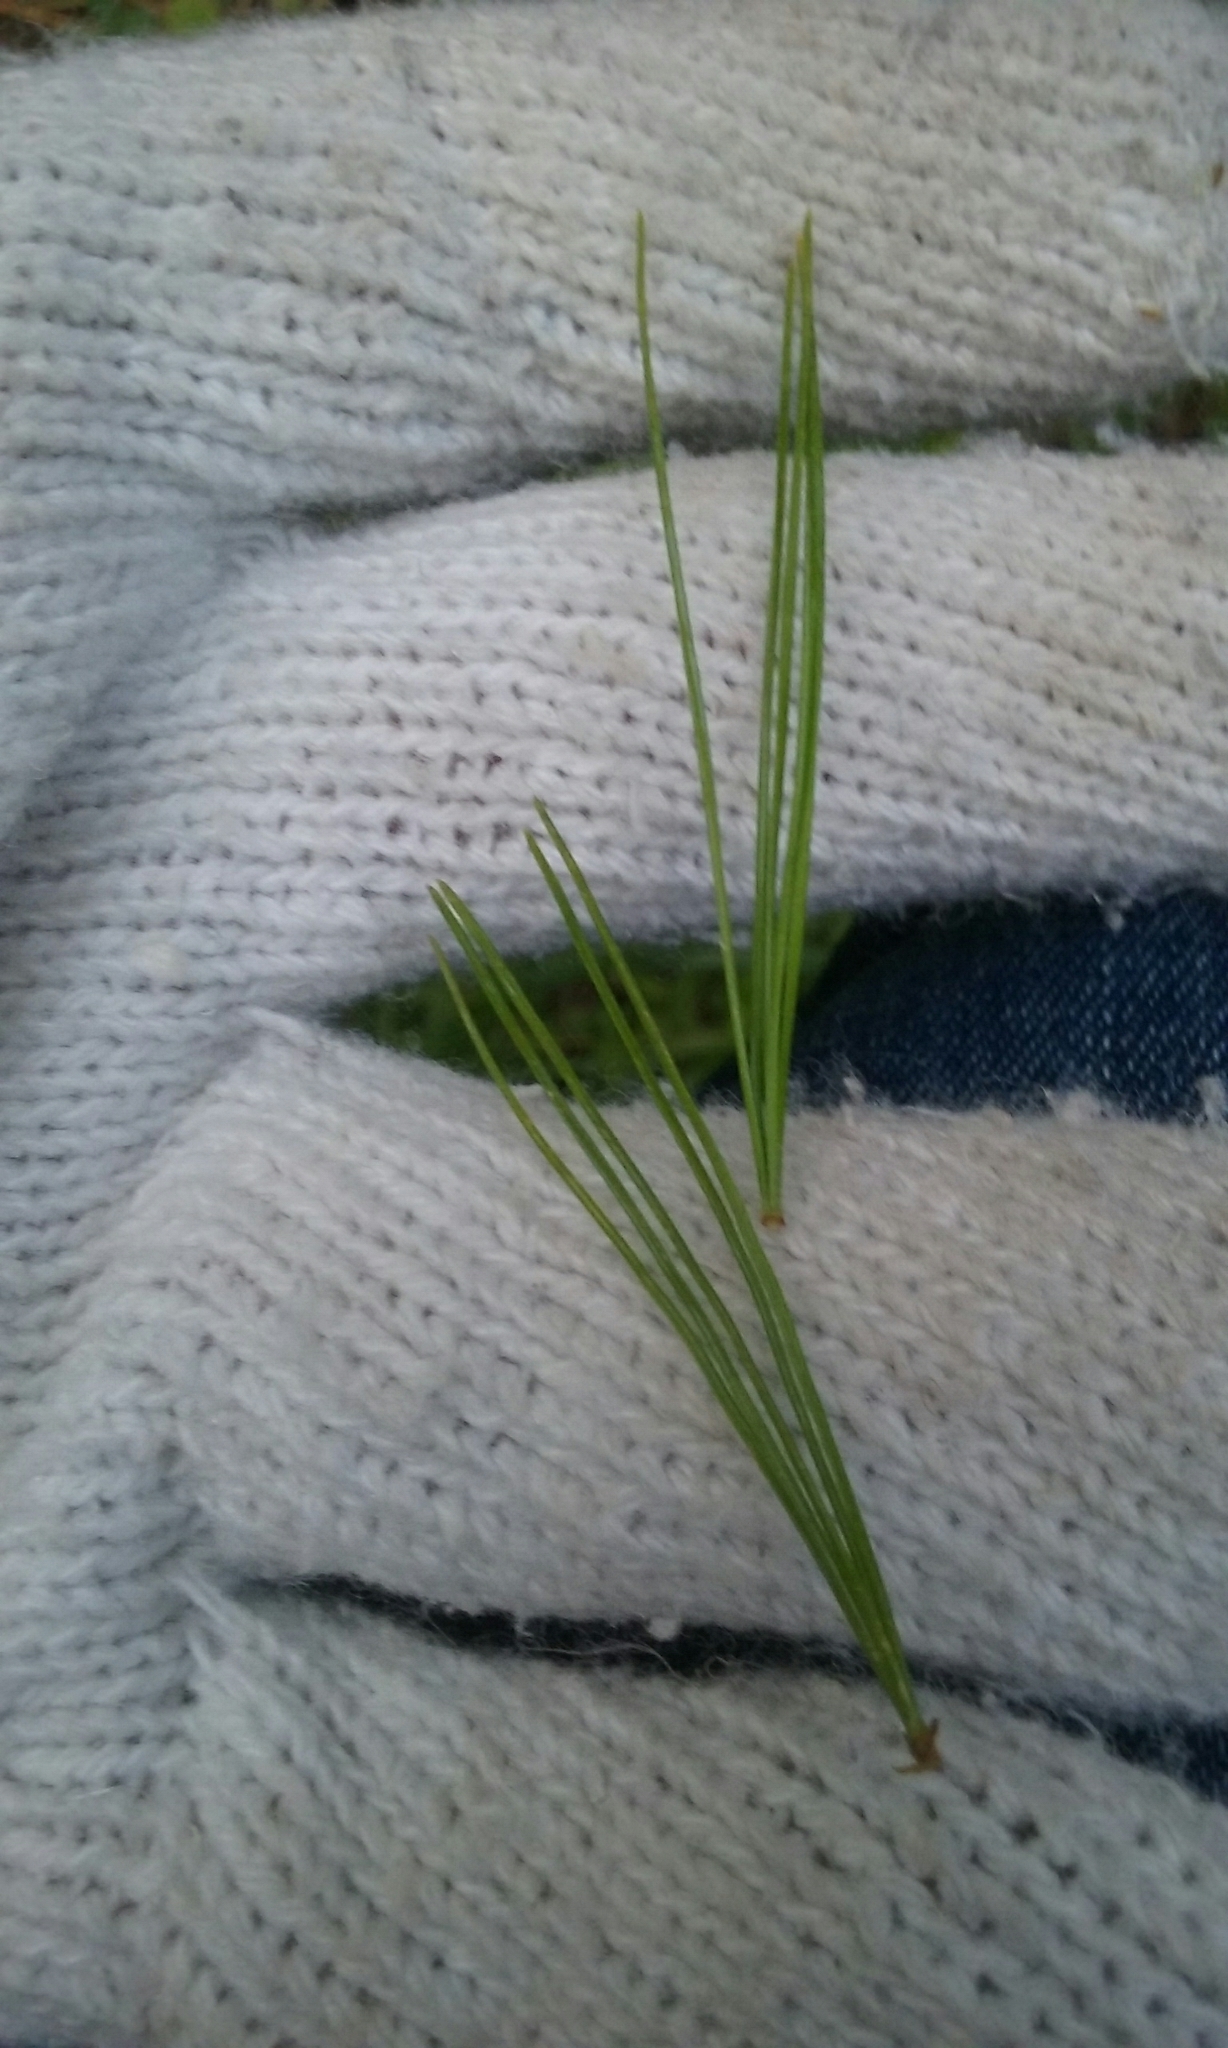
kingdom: Plantae
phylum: Tracheophyta
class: Pinopsida
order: Pinales
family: Pinaceae
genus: Pinus
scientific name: Pinus strobus
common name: Weymouth pine
